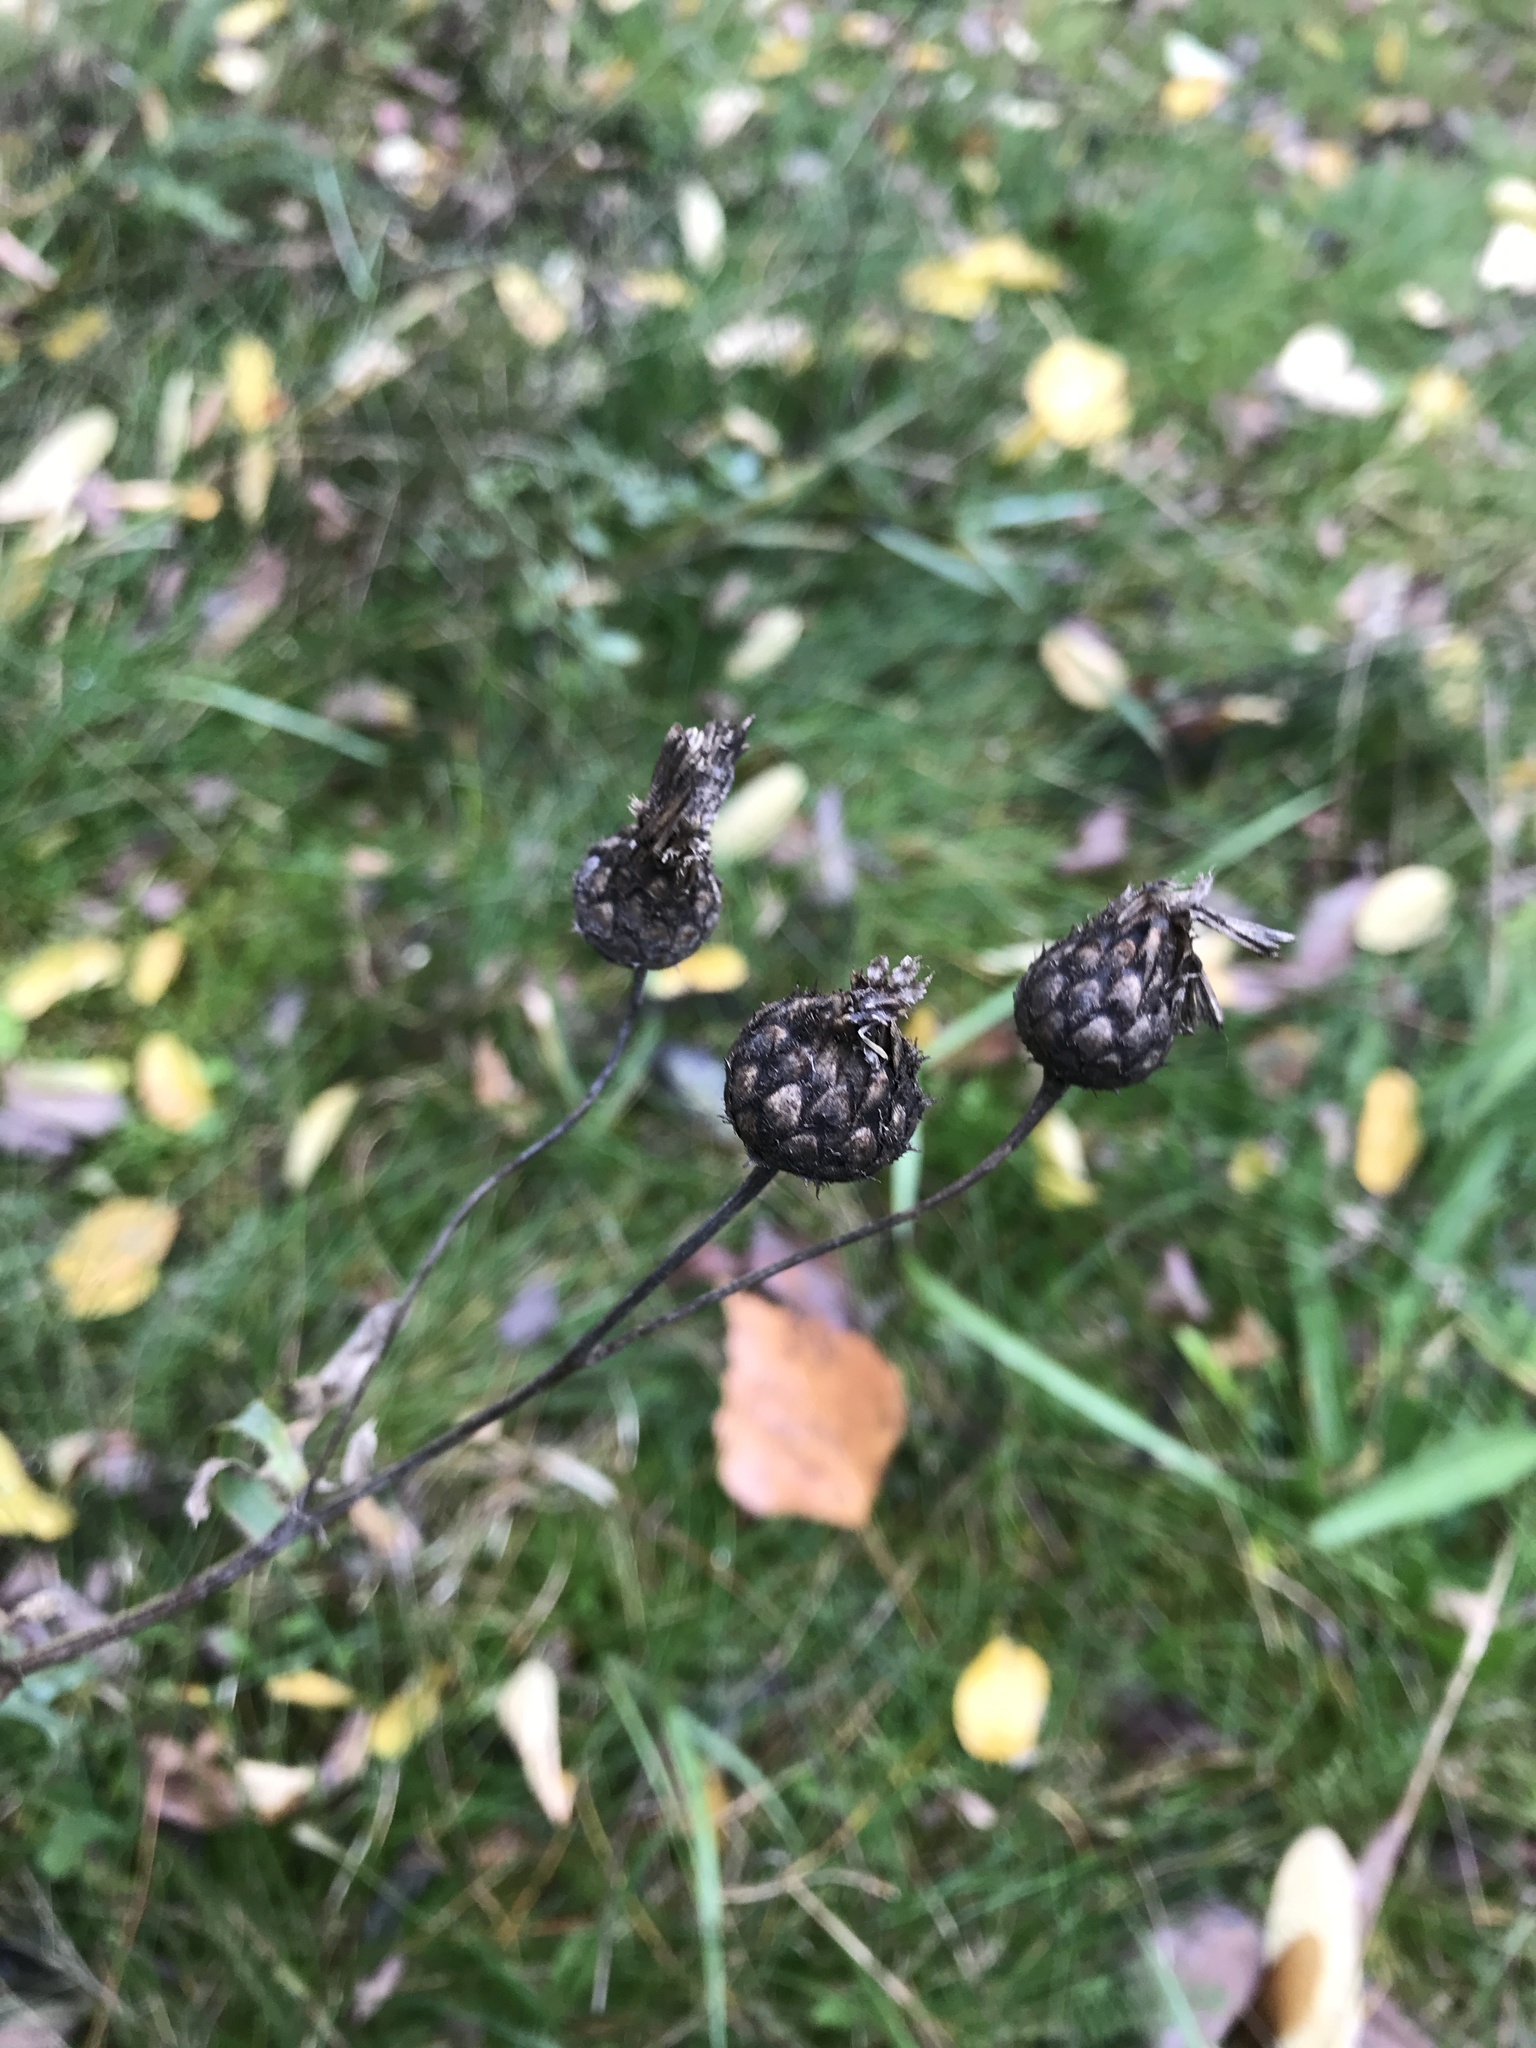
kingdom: Plantae
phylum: Tracheophyta
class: Magnoliopsida
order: Asterales
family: Asteraceae
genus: Centaurea
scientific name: Centaurea scabiosa
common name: Greater knapweed
